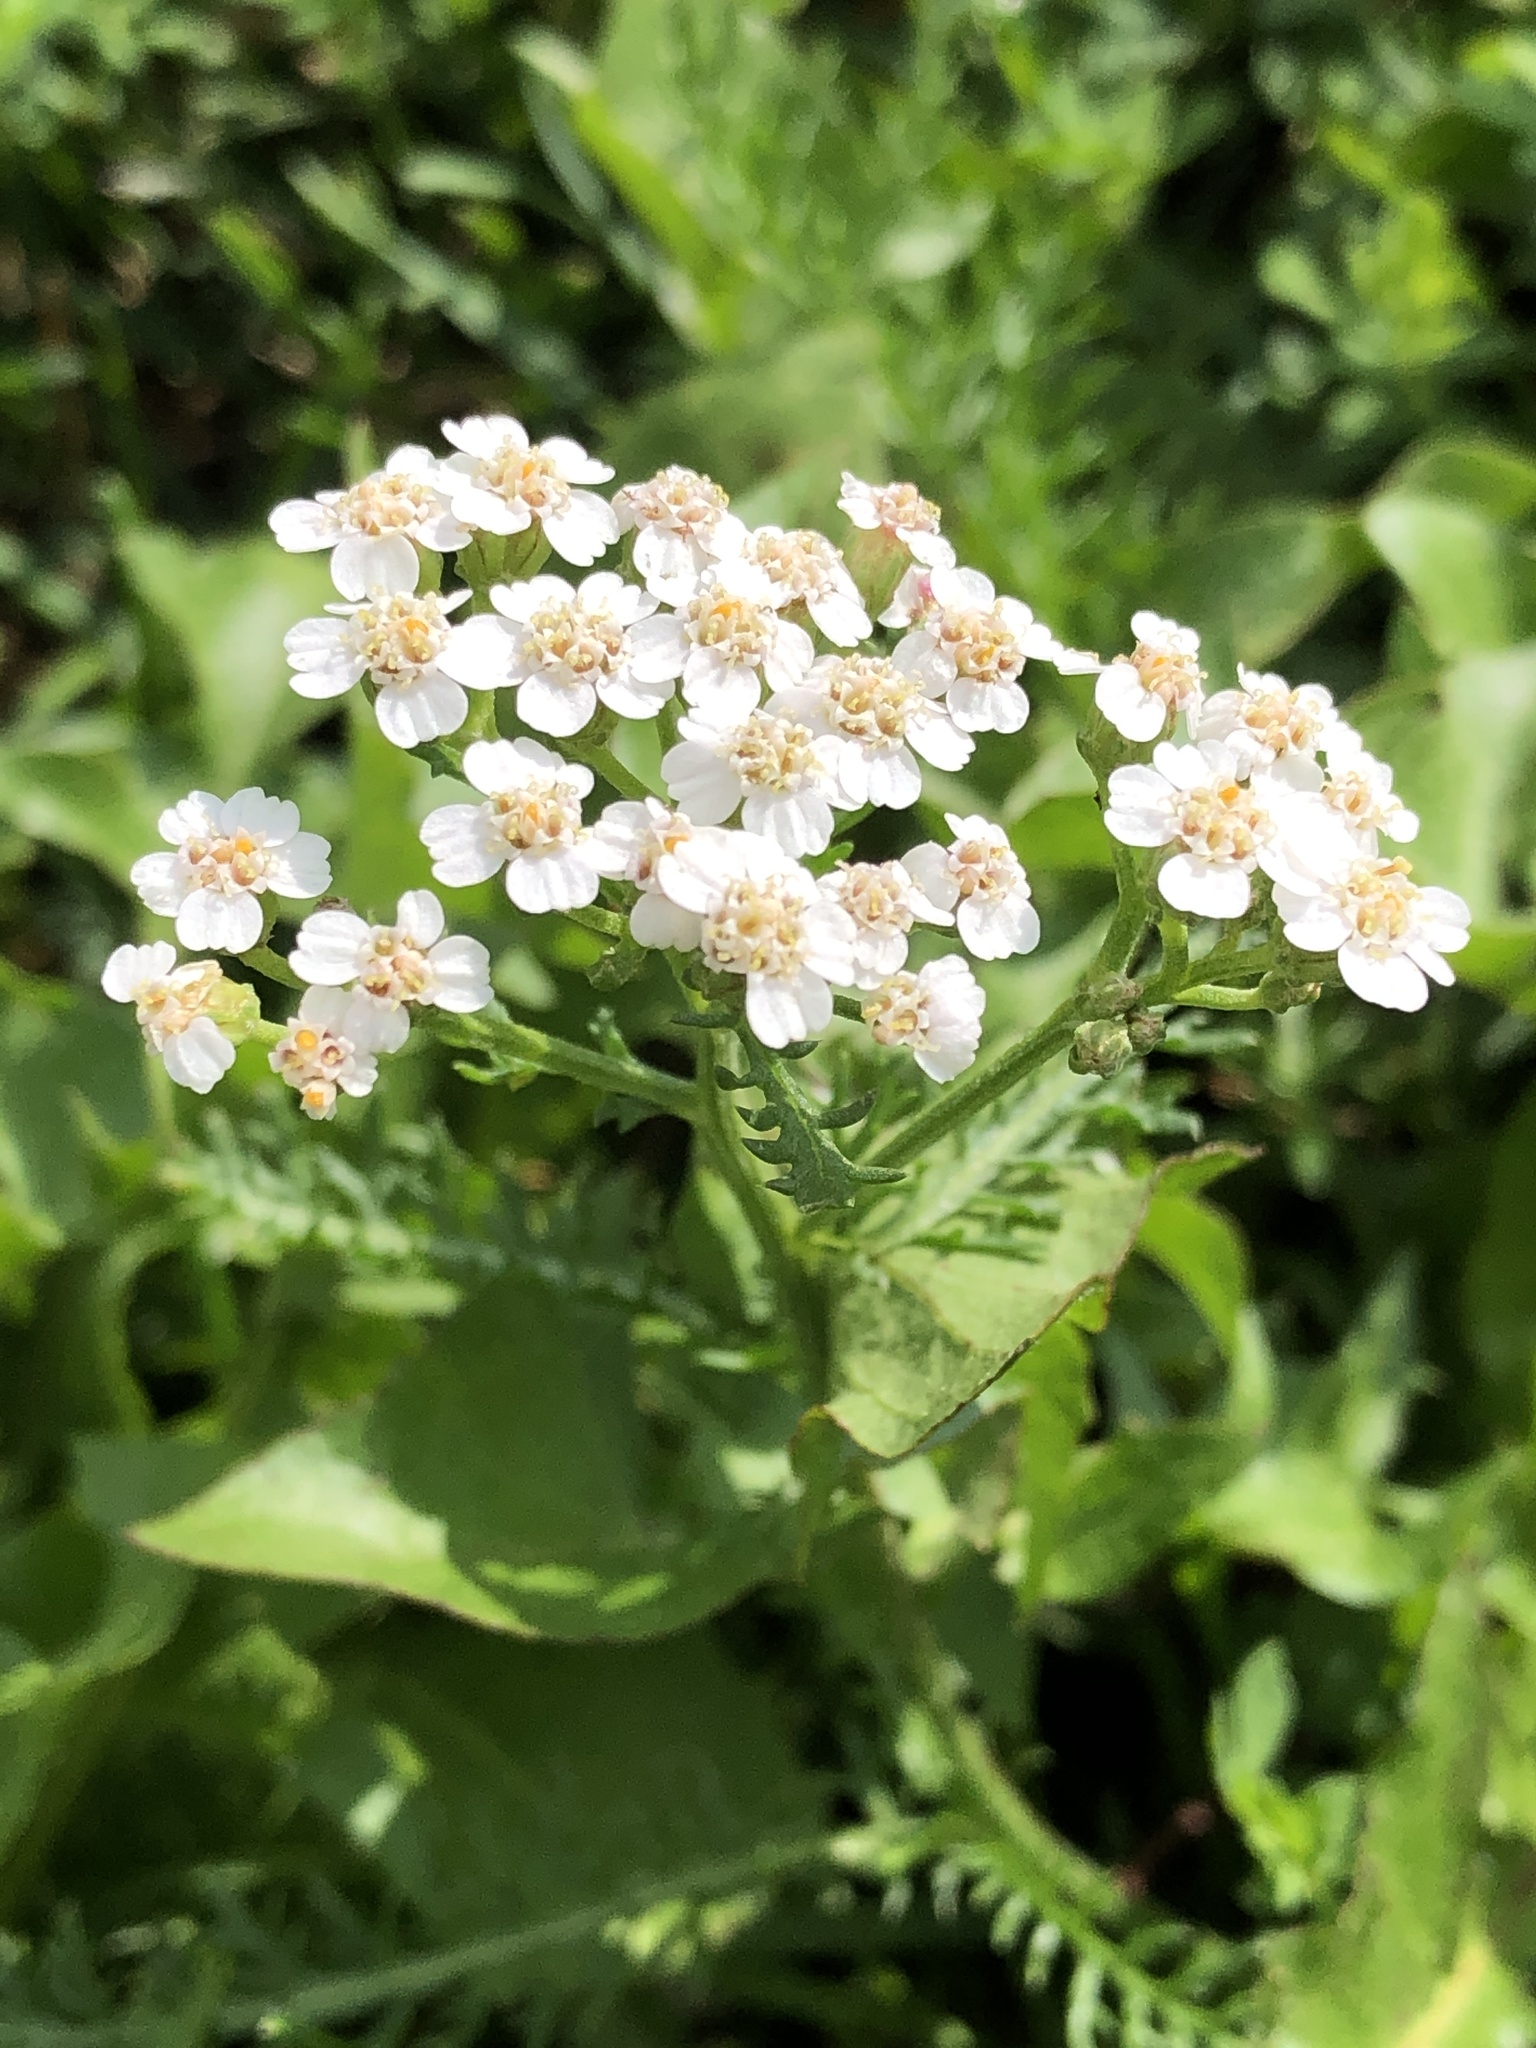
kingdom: Plantae
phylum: Tracheophyta
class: Magnoliopsida
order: Asterales
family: Asteraceae
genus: Achillea
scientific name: Achillea millefolium
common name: Yarrow
